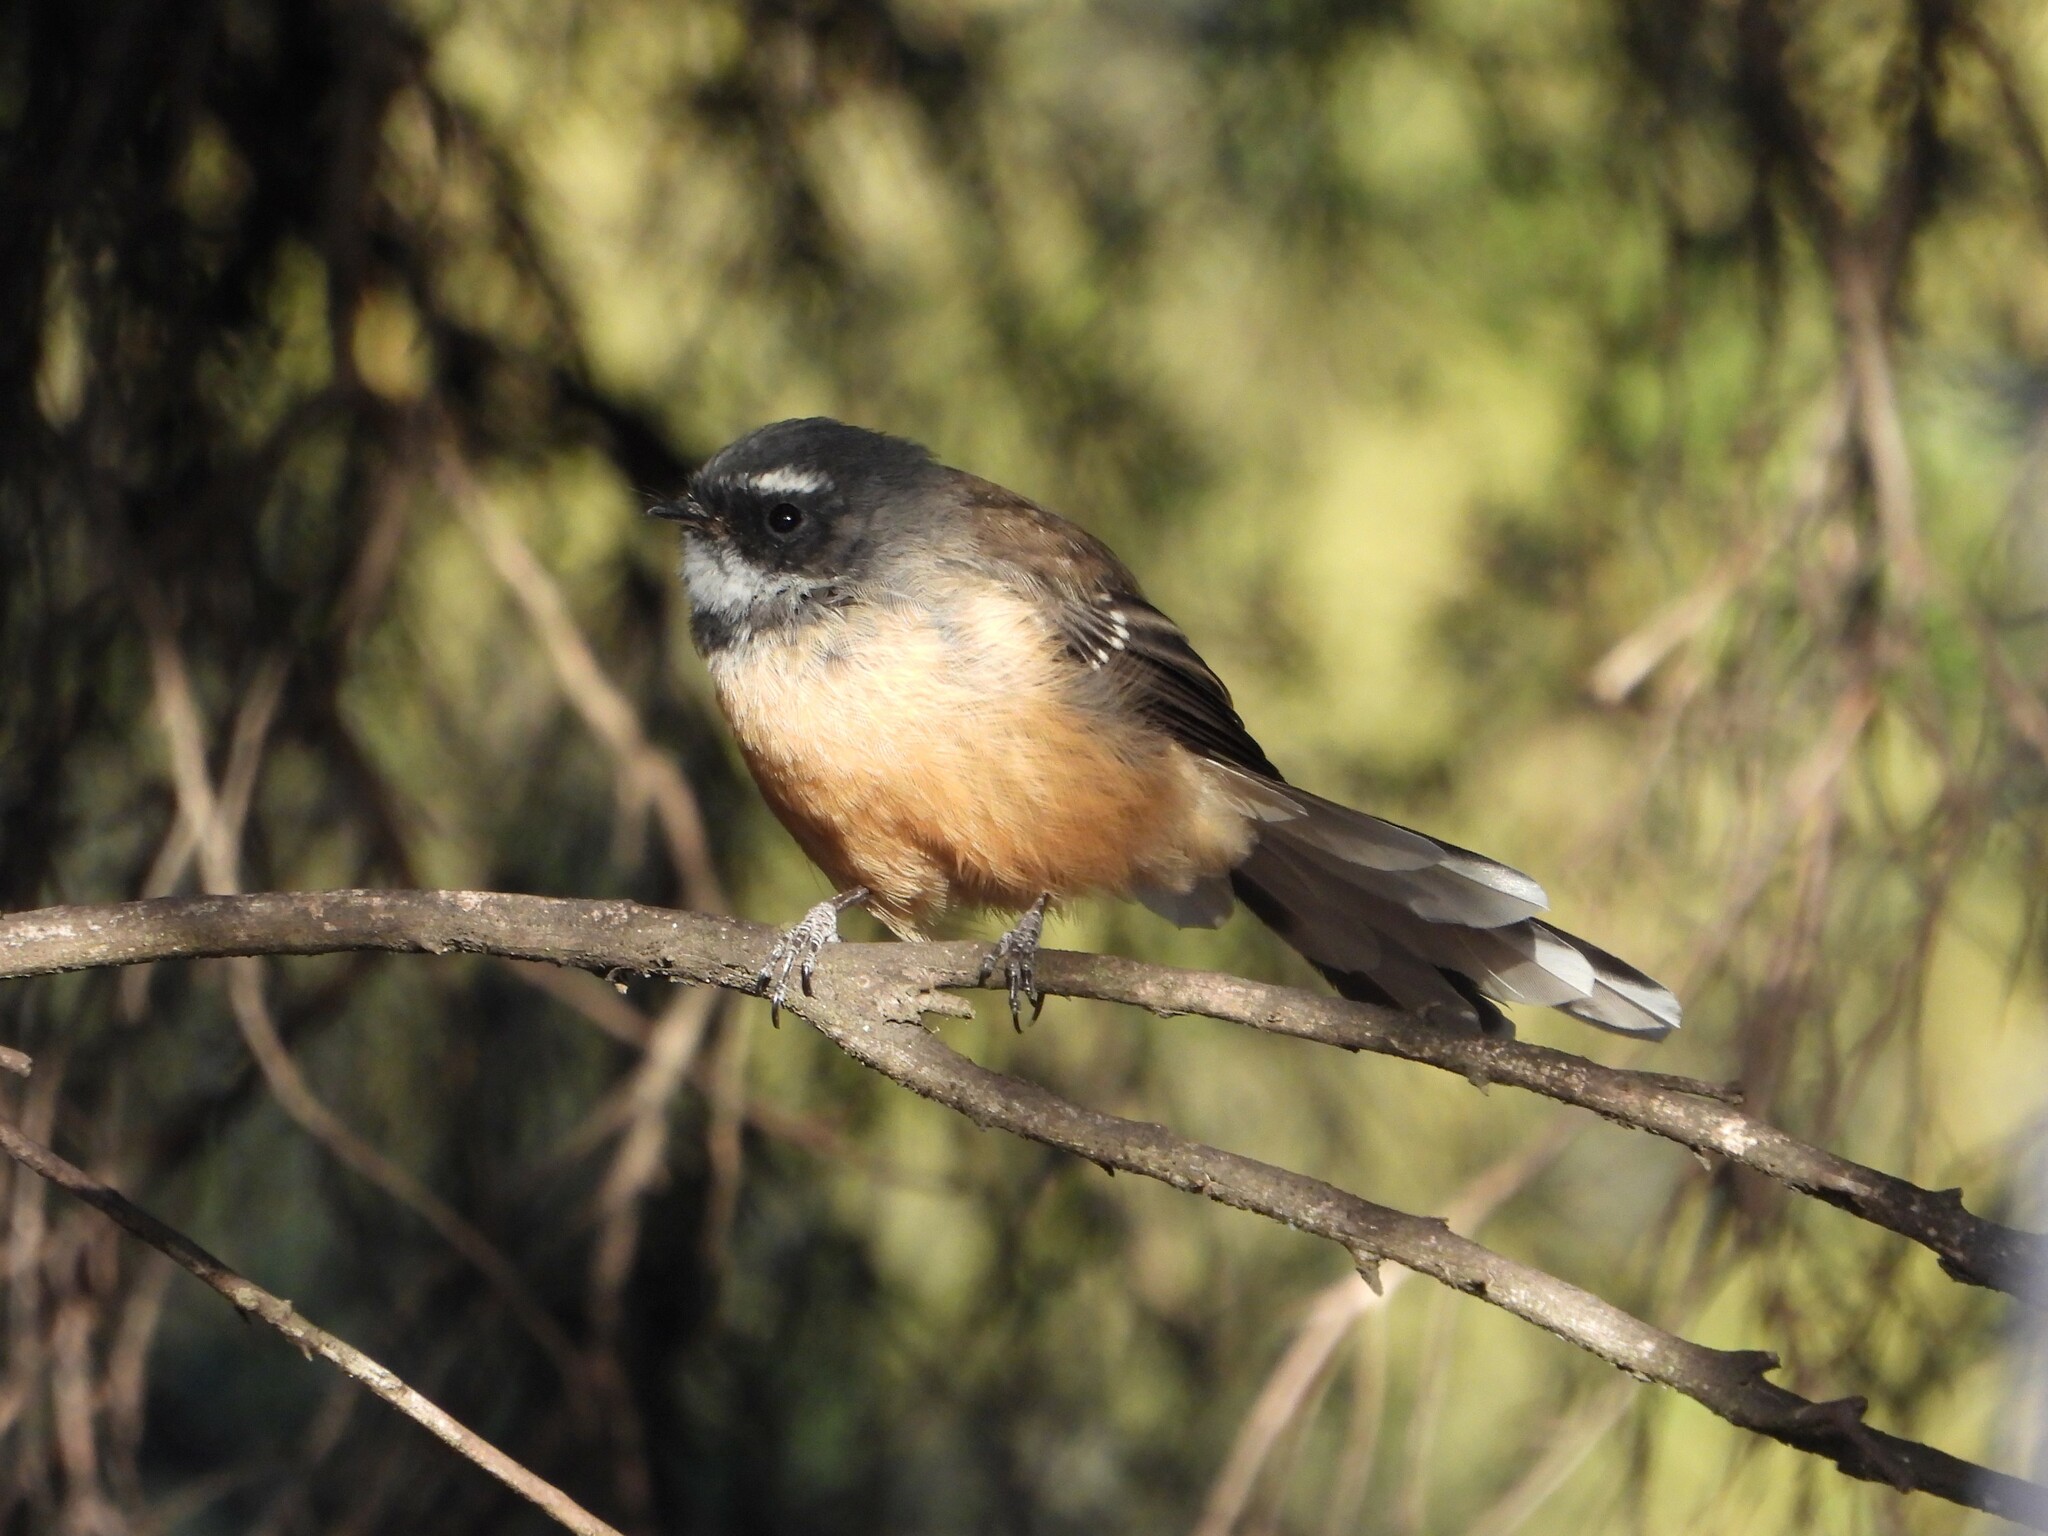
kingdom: Animalia
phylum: Chordata
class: Aves
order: Passeriformes
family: Rhipiduridae
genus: Rhipidura
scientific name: Rhipidura fuliginosa
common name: New zealand fantail
